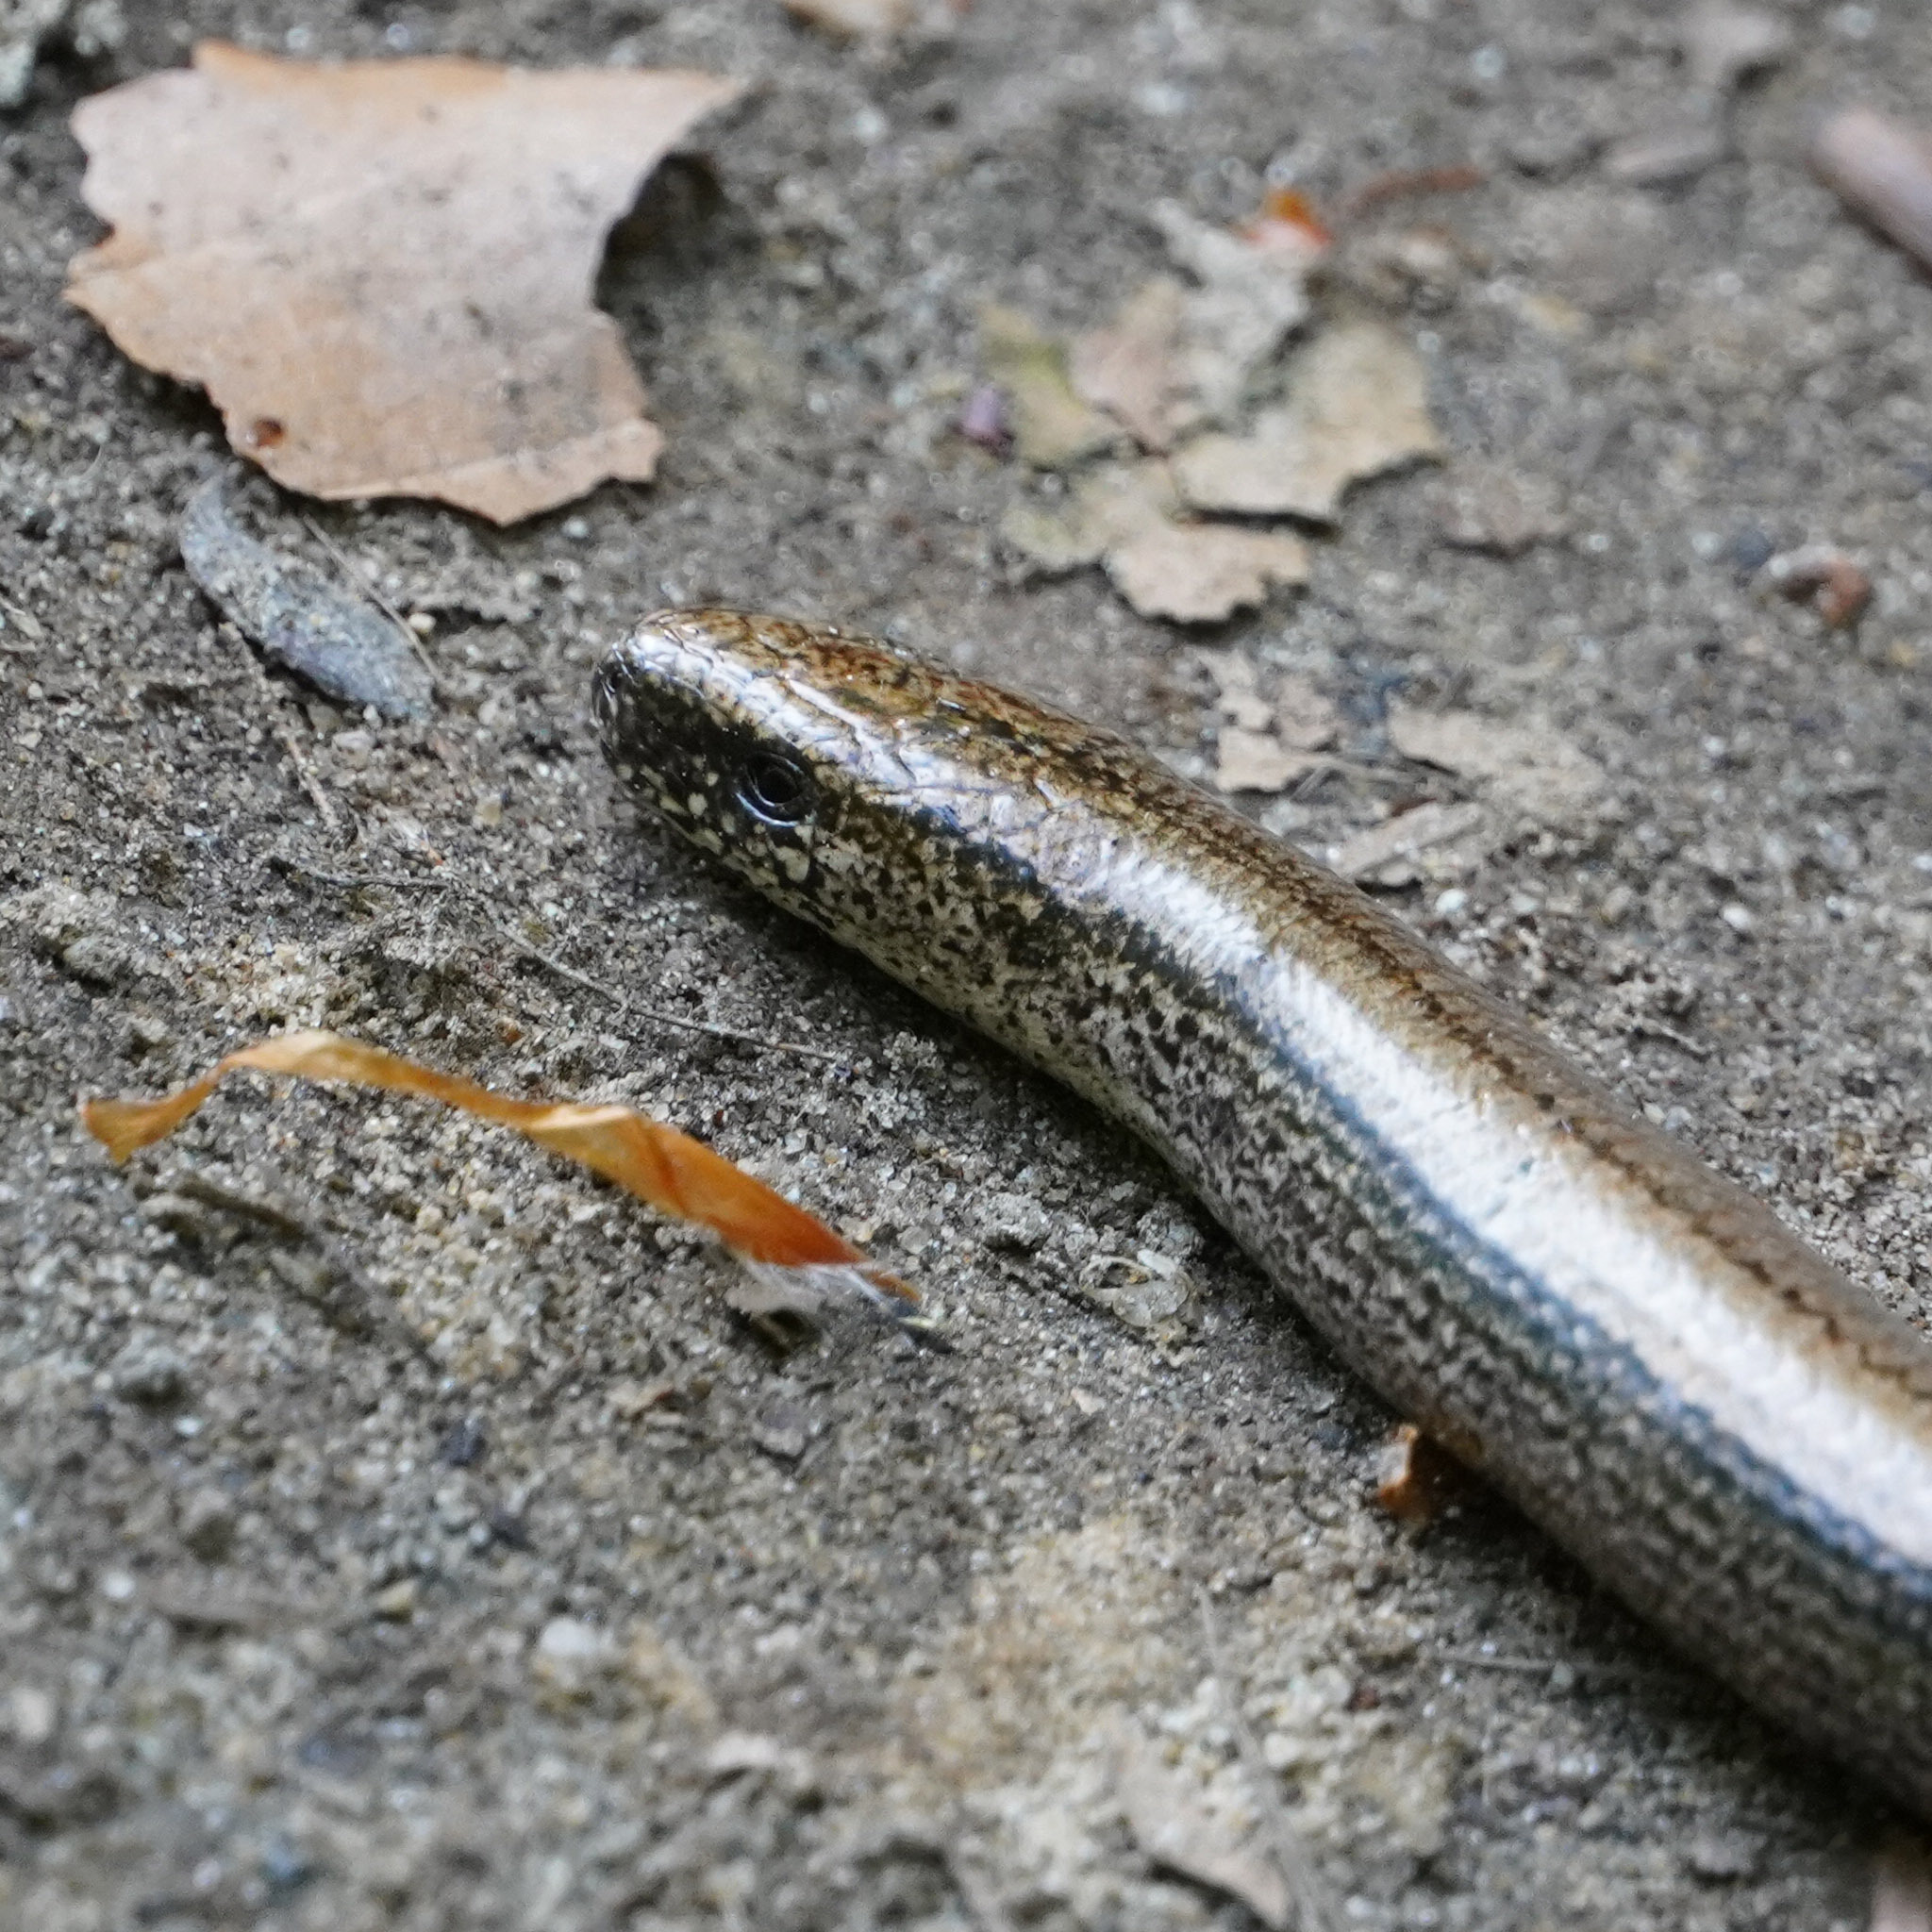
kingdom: Animalia
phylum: Chordata
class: Squamata
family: Anguidae
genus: Anguis
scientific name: Anguis fragilis
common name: Slow worm
